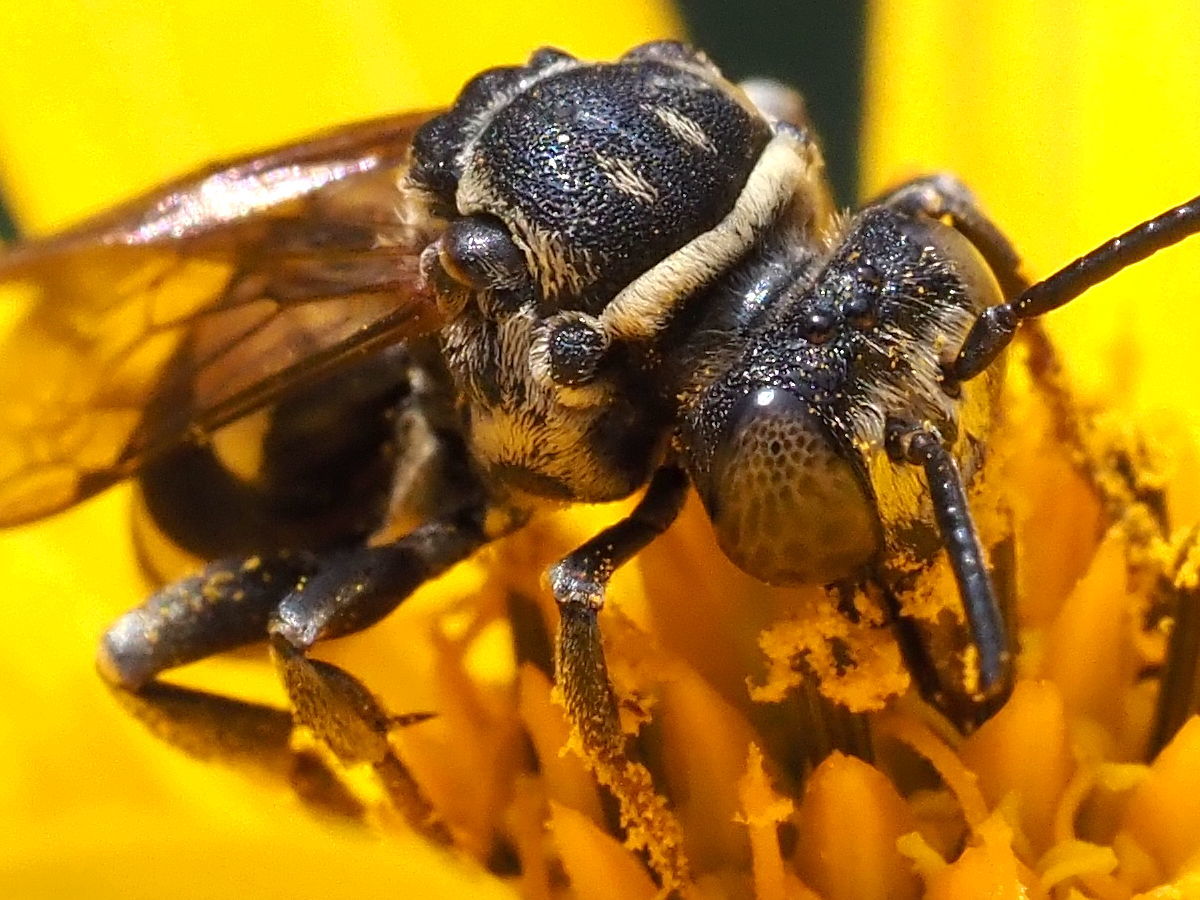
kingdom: Animalia
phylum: Arthropoda
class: Insecta
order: Hymenoptera
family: Apidae
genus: Triepeolus
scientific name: Triepeolus lunatus
